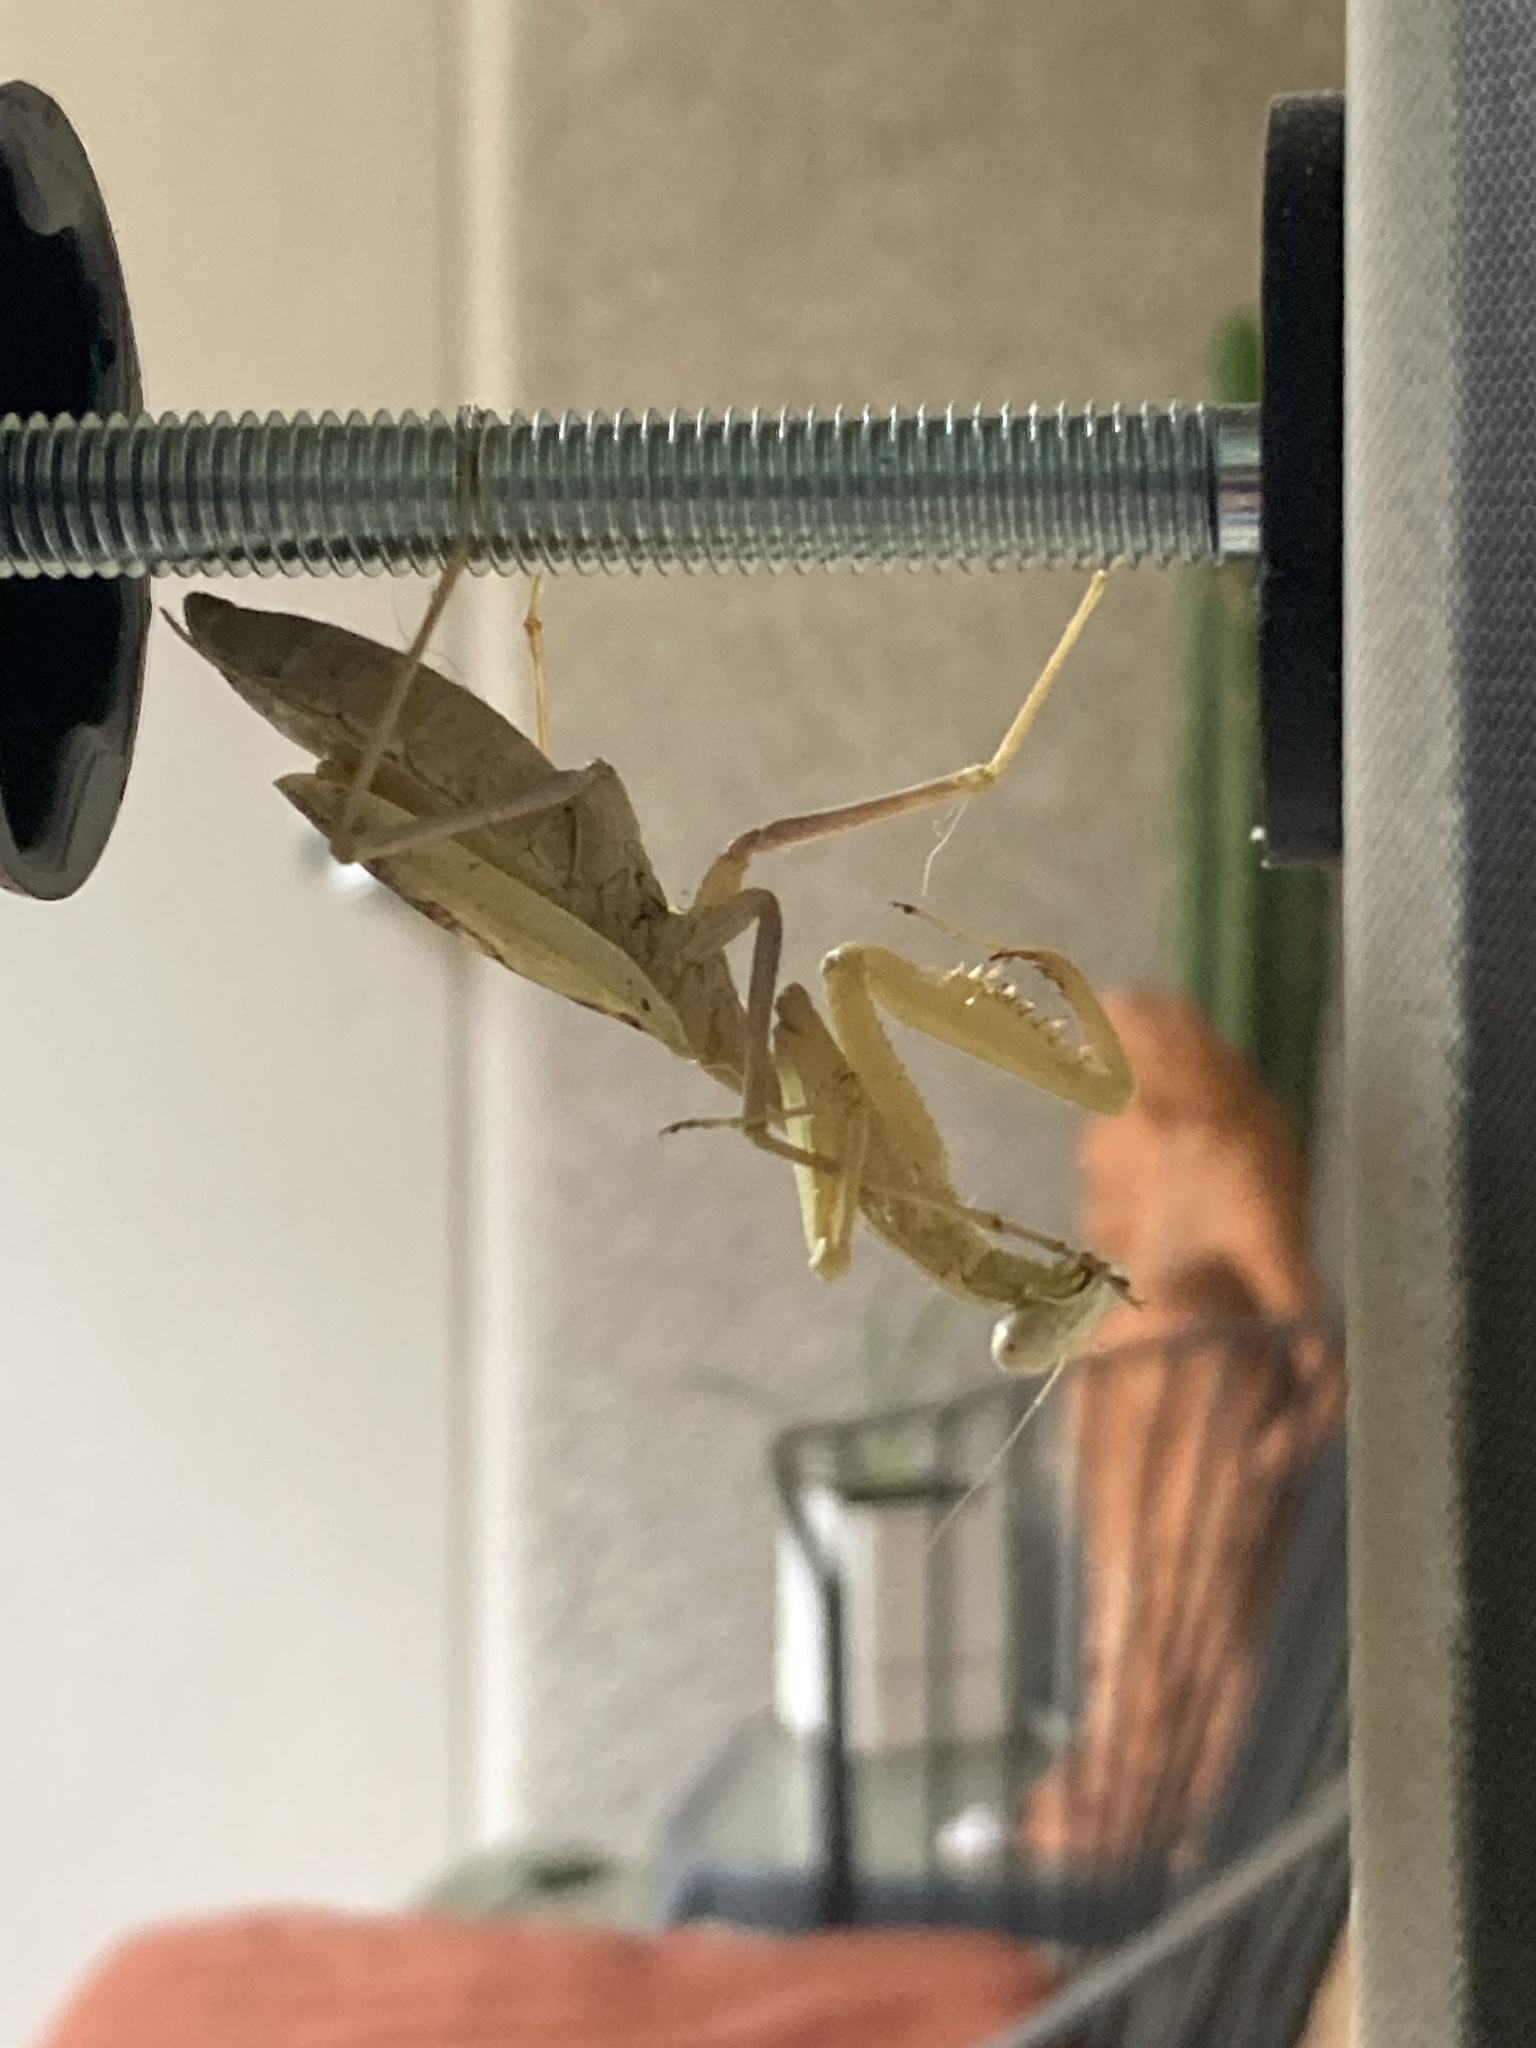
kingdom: Animalia
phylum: Arthropoda
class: Insecta
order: Mantodea
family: Mantidae
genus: Stagmomantis
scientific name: Stagmomantis limbata
